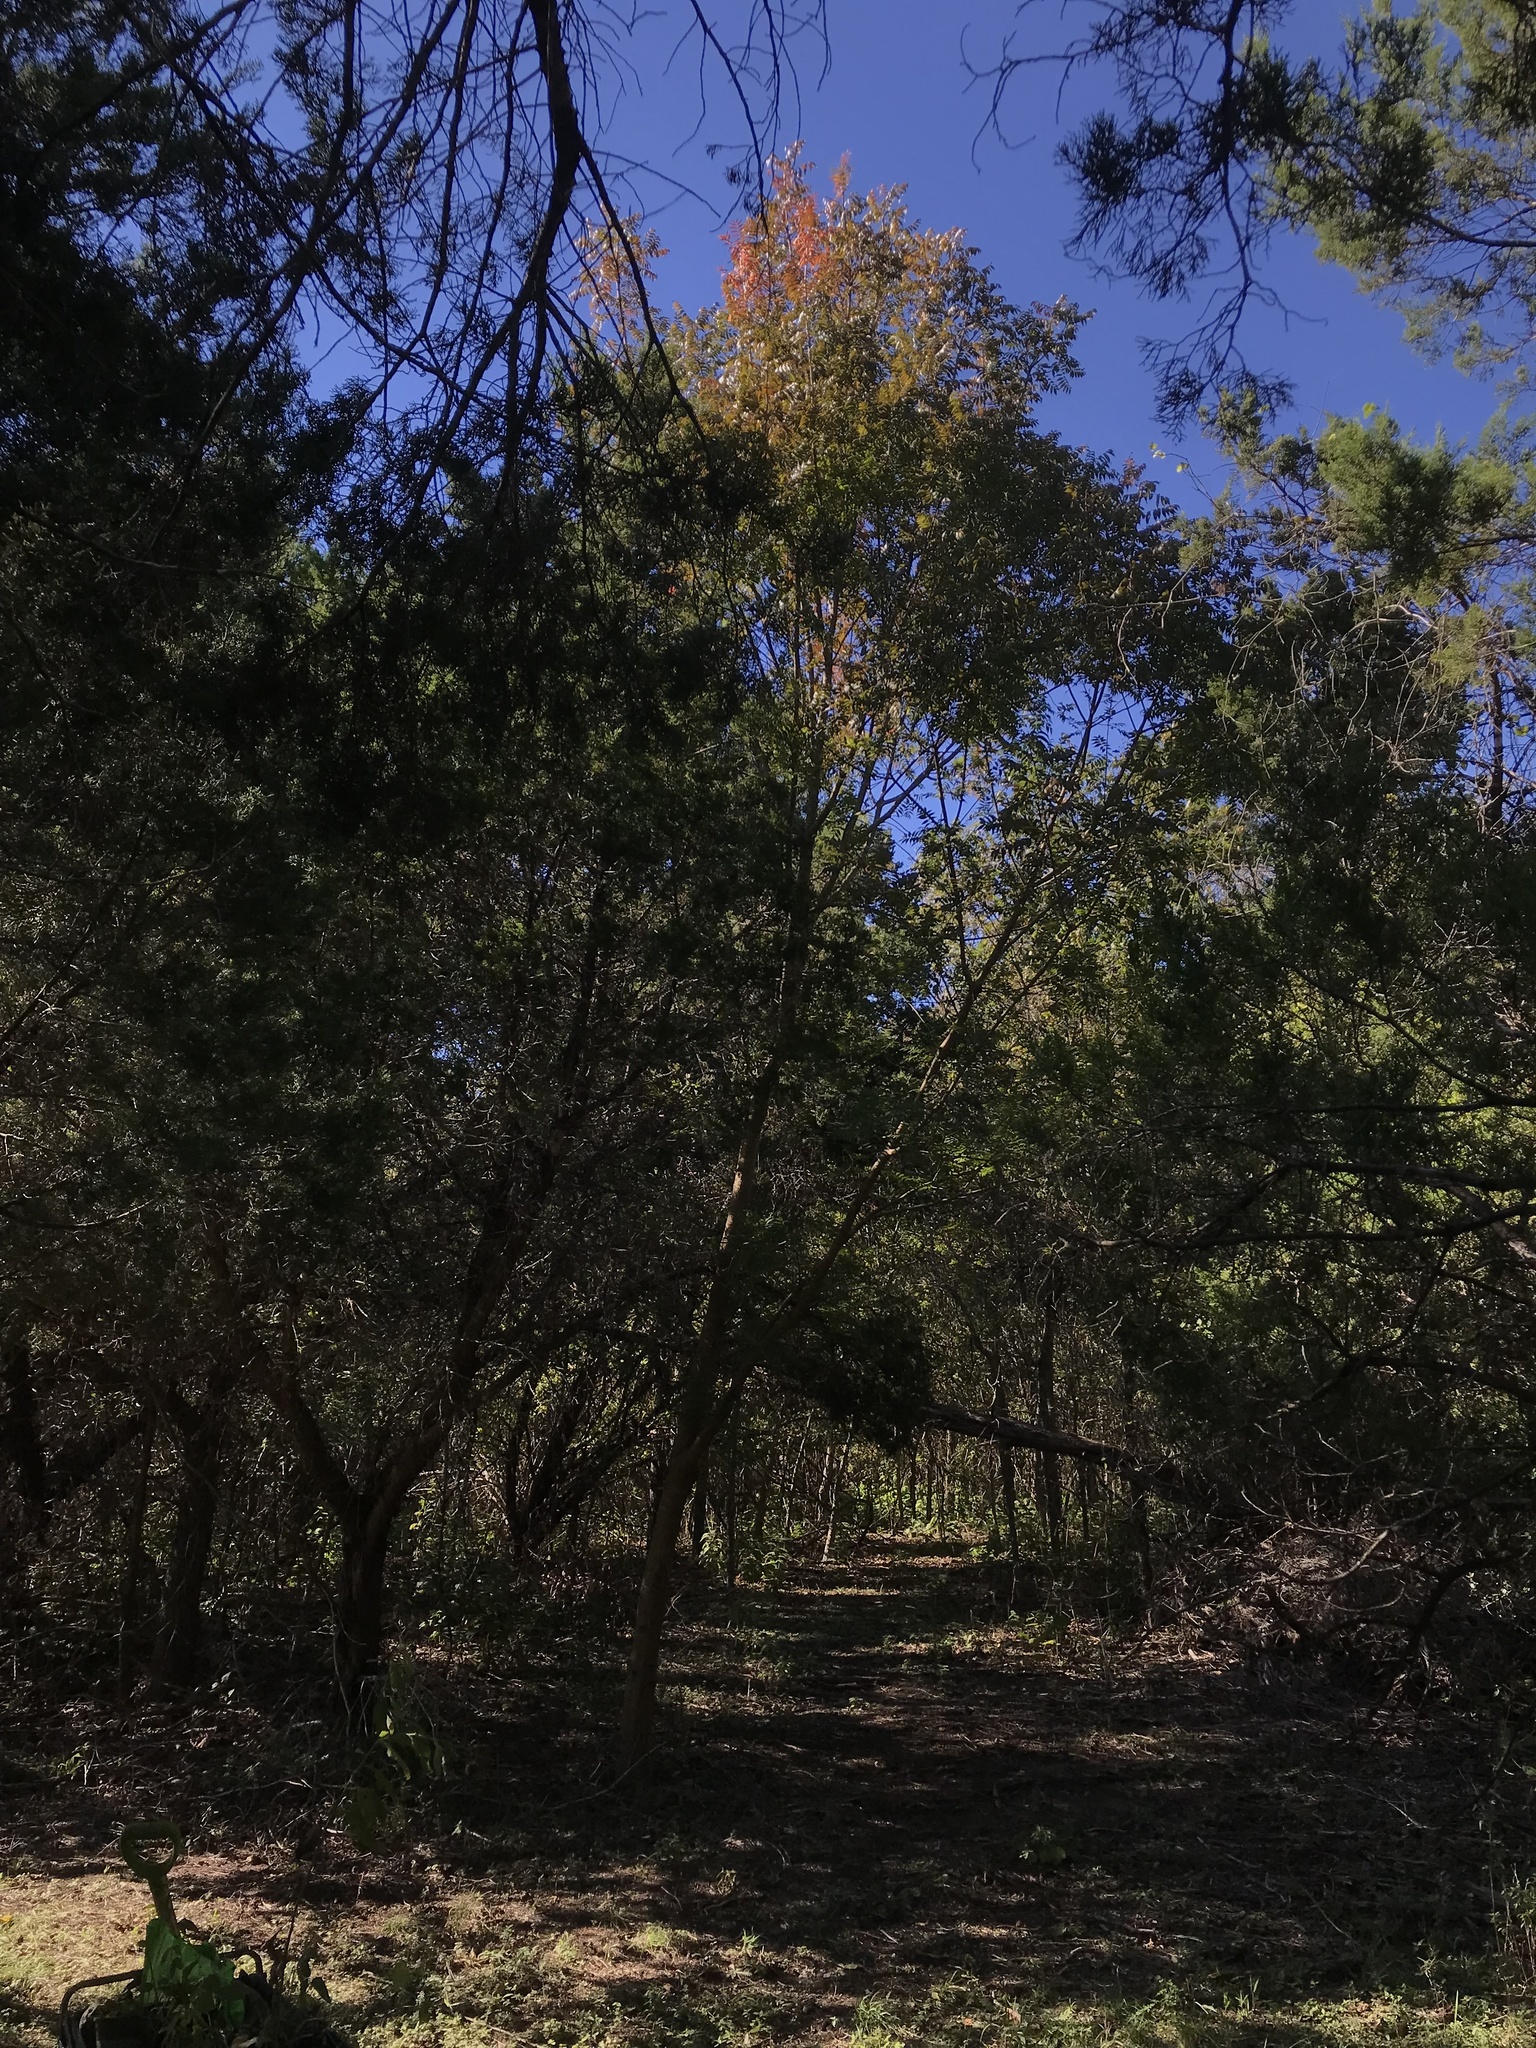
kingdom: Plantae
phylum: Tracheophyta
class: Magnoliopsida
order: Sapindales
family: Anacardiaceae
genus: Pistacia
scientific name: Pistacia chinensis
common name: Chinese pistache
